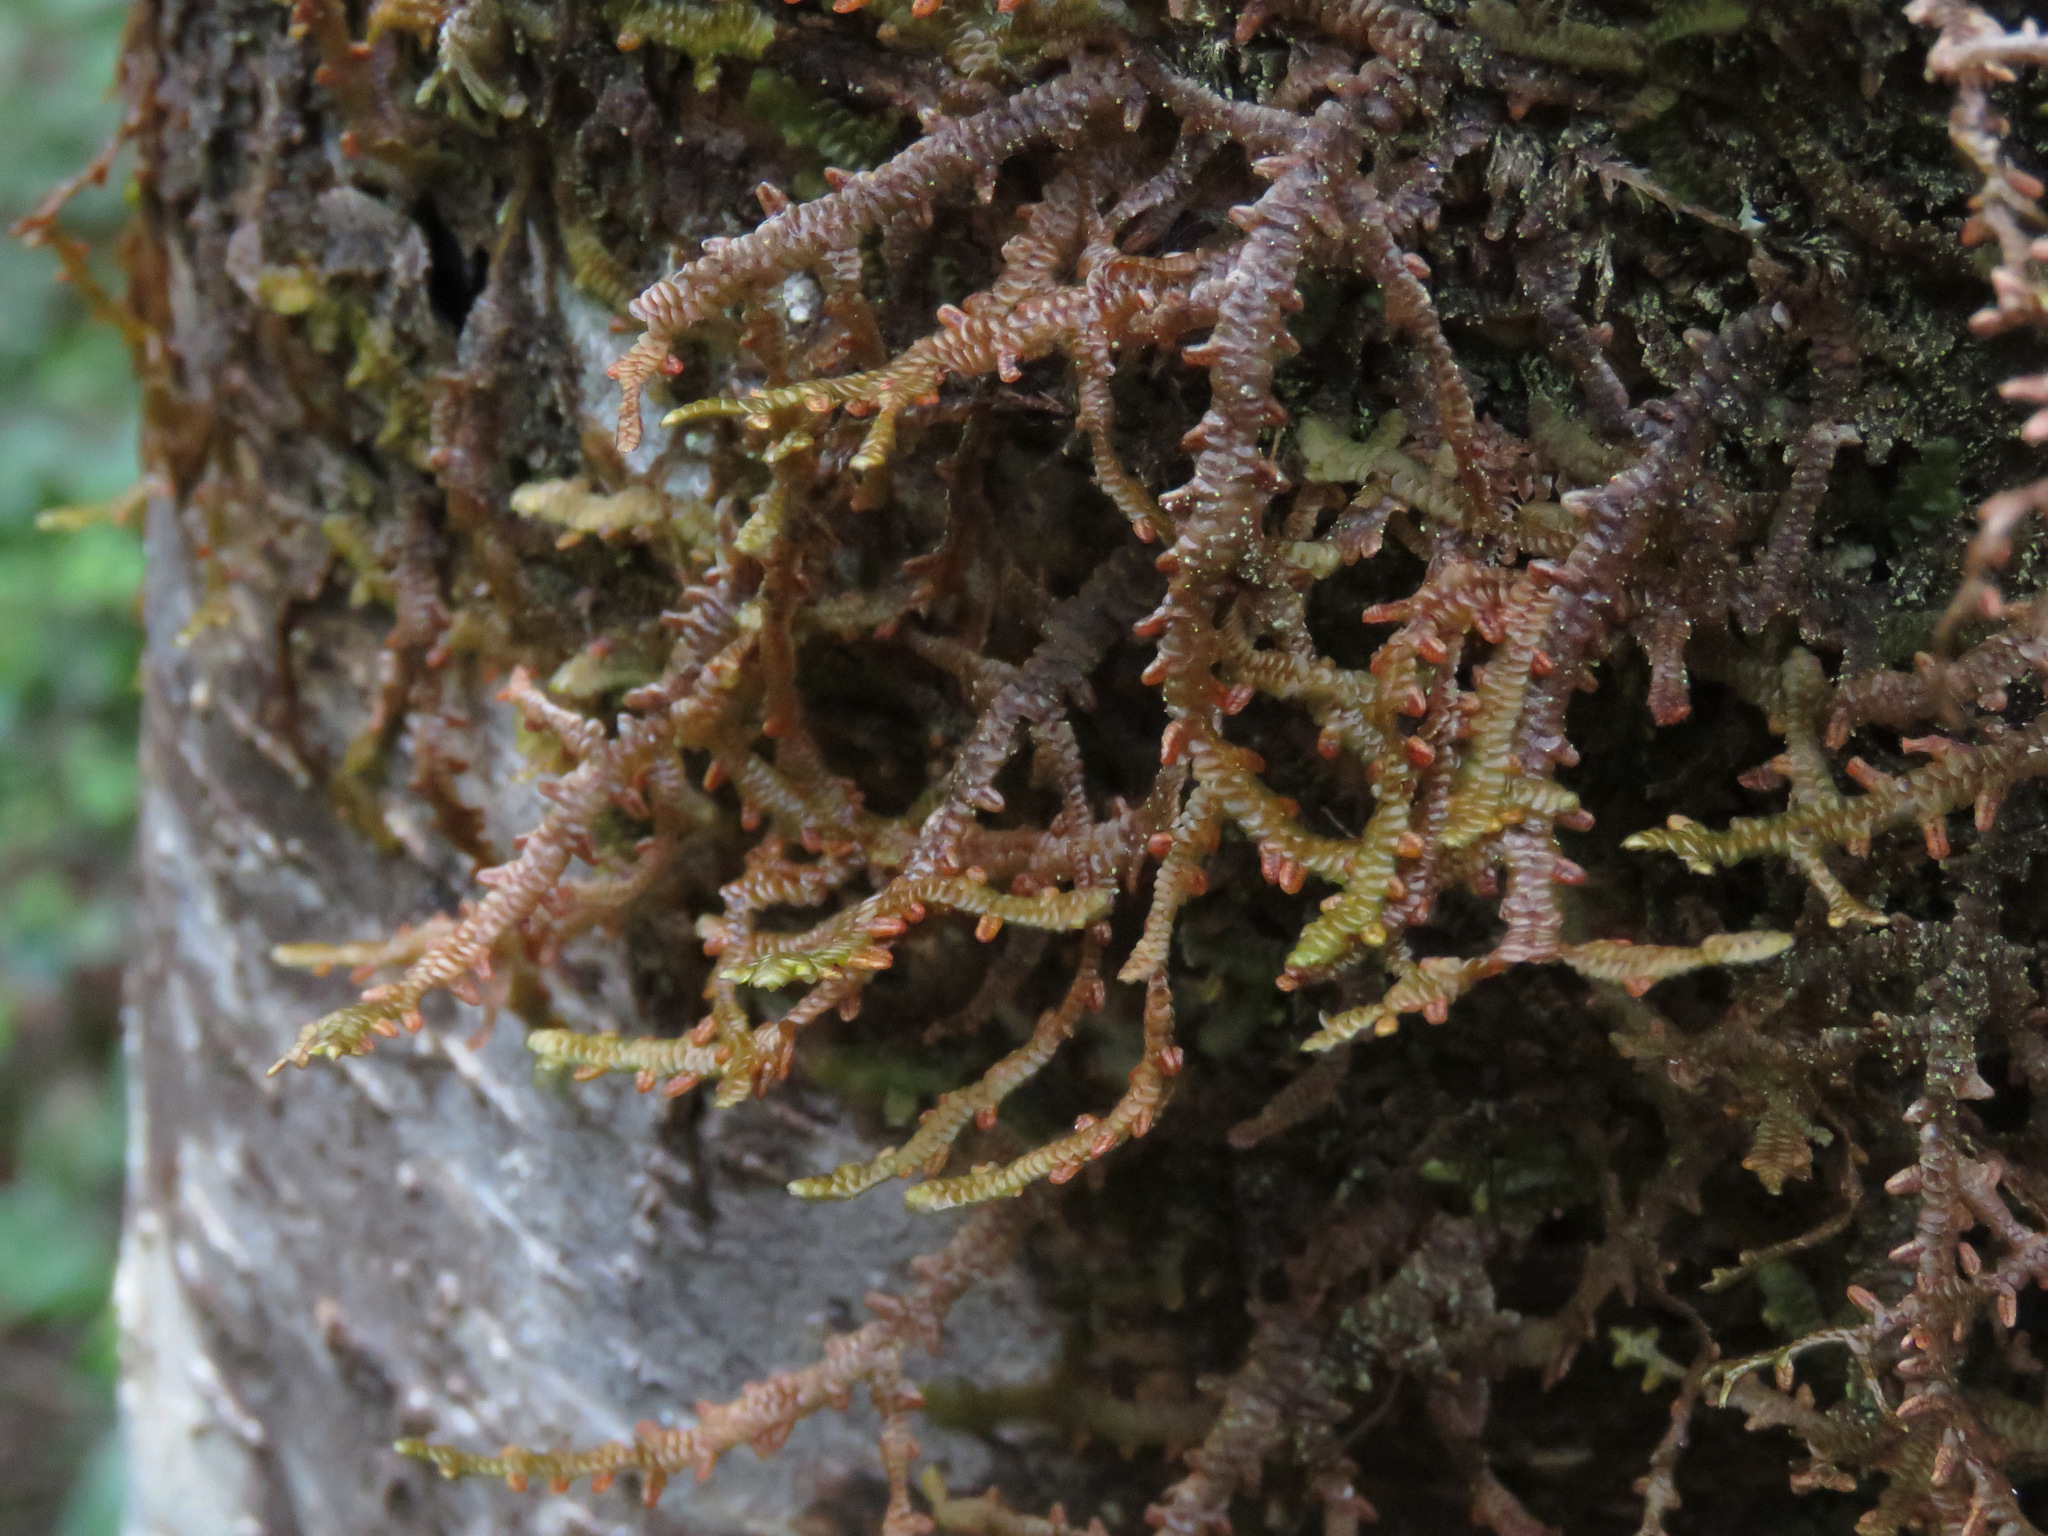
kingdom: Plantae
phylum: Marchantiophyta
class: Jungermanniopsida
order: Porellales
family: Porellaceae
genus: Porella
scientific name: Porella navicularis
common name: Tree ruffle liverwort
